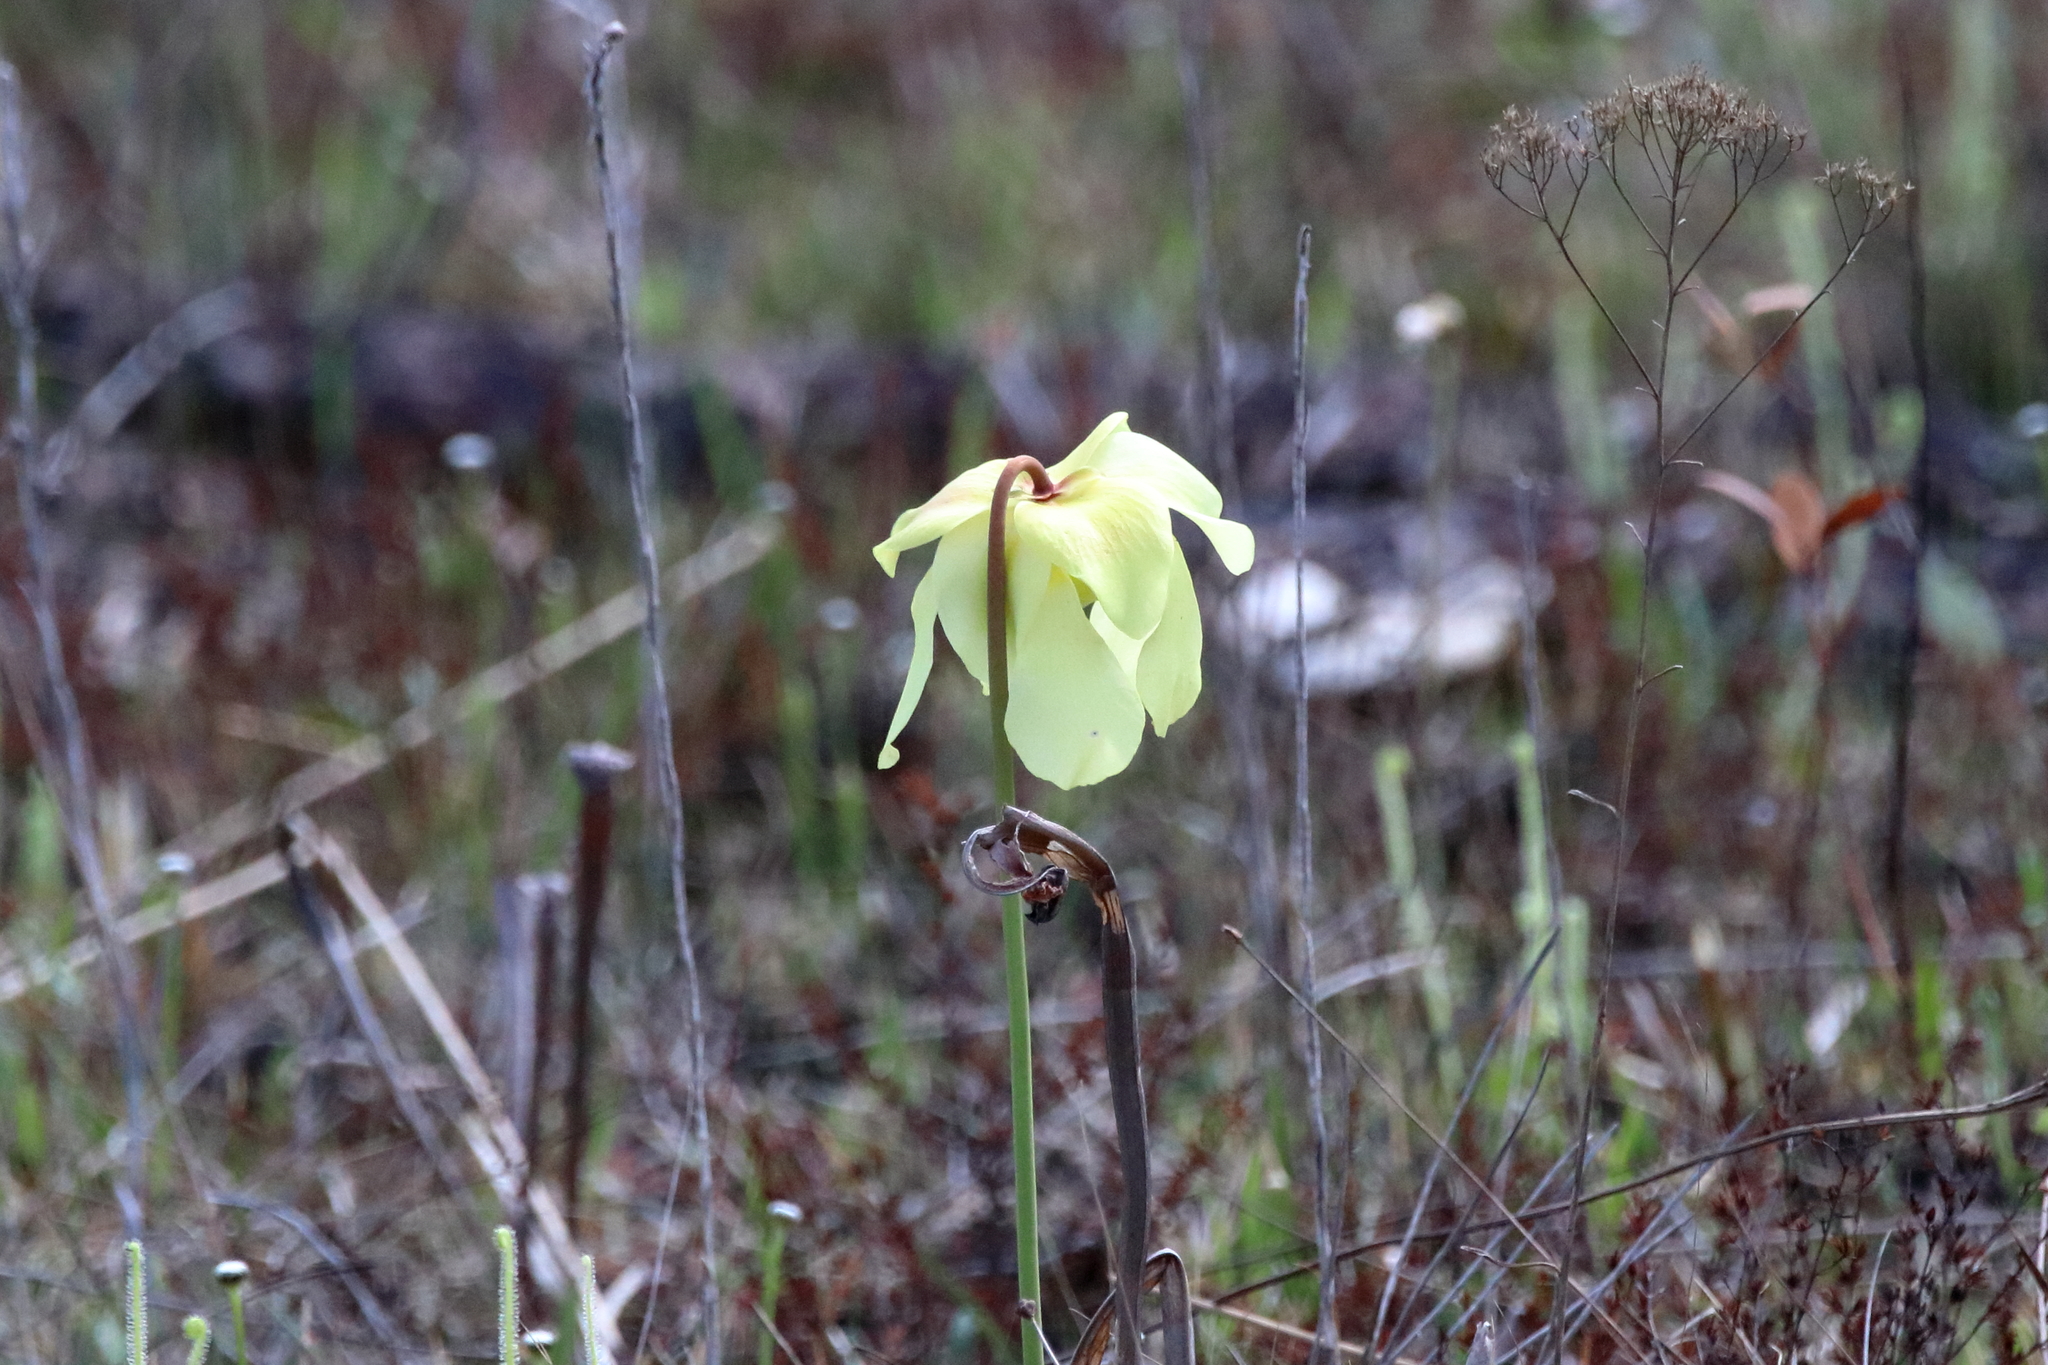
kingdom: Plantae
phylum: Tracheophyta
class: Magnoliopsida
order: Ericales
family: Sarraceniaceae
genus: Sarracenia
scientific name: Sarracenia alata
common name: Yellow trumpets
